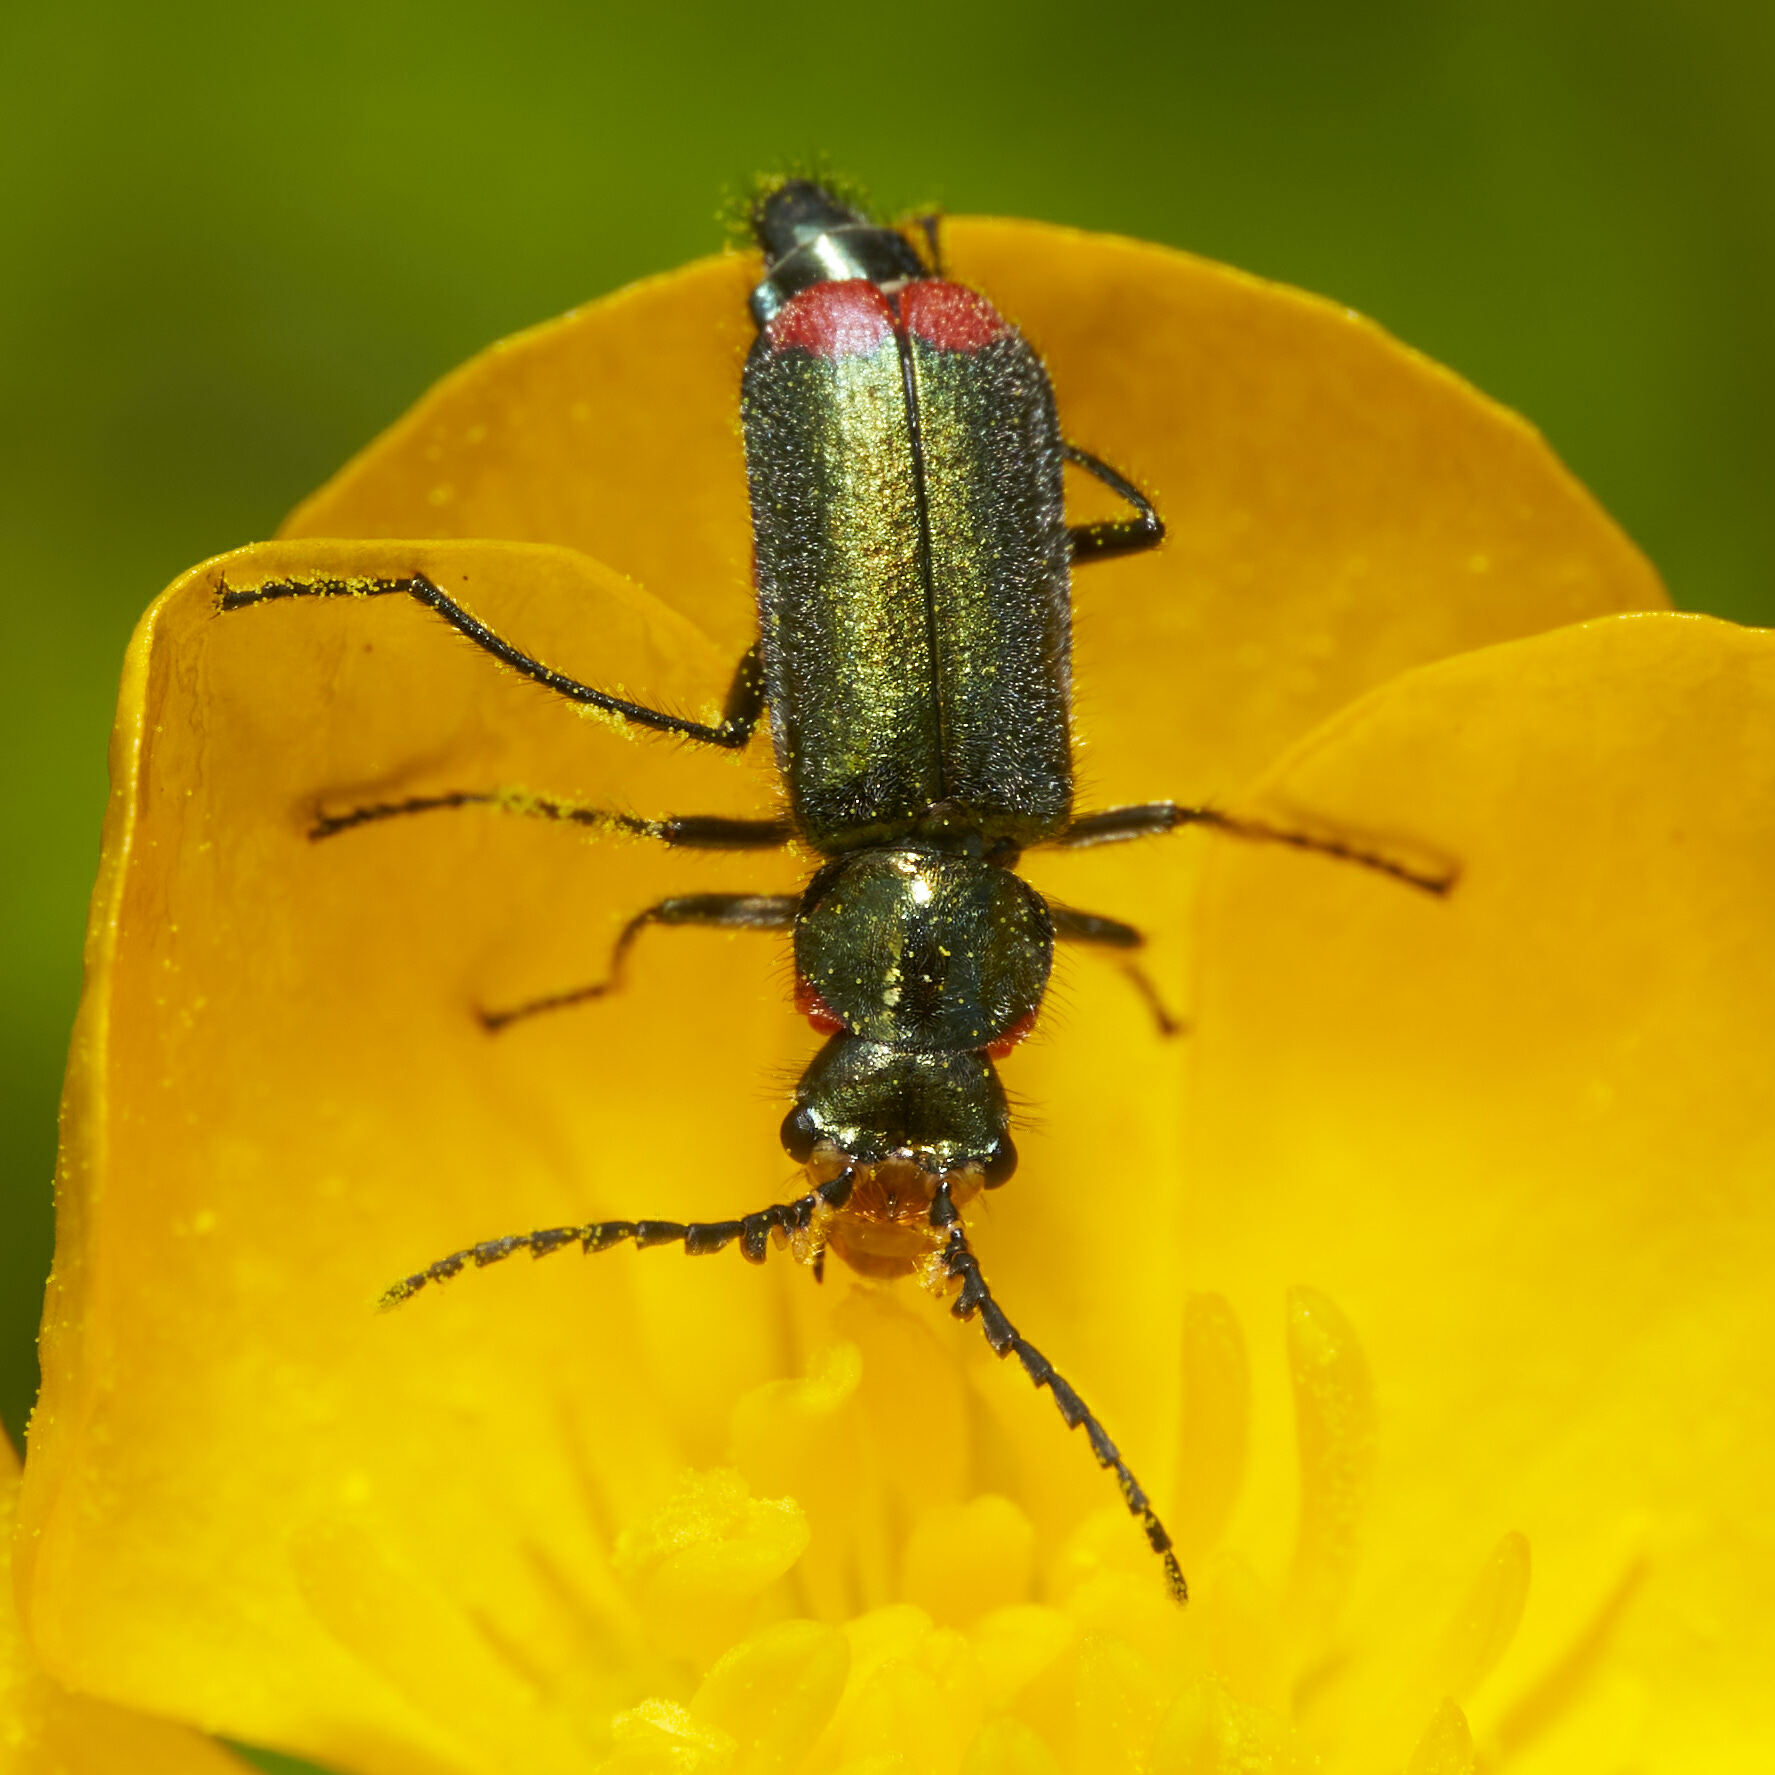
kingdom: Animalia
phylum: Arthropoda
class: Insecta
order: Coleoptera
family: Melyridae
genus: Malachius
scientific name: Malachius bipustulatus
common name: Malachite beetle
